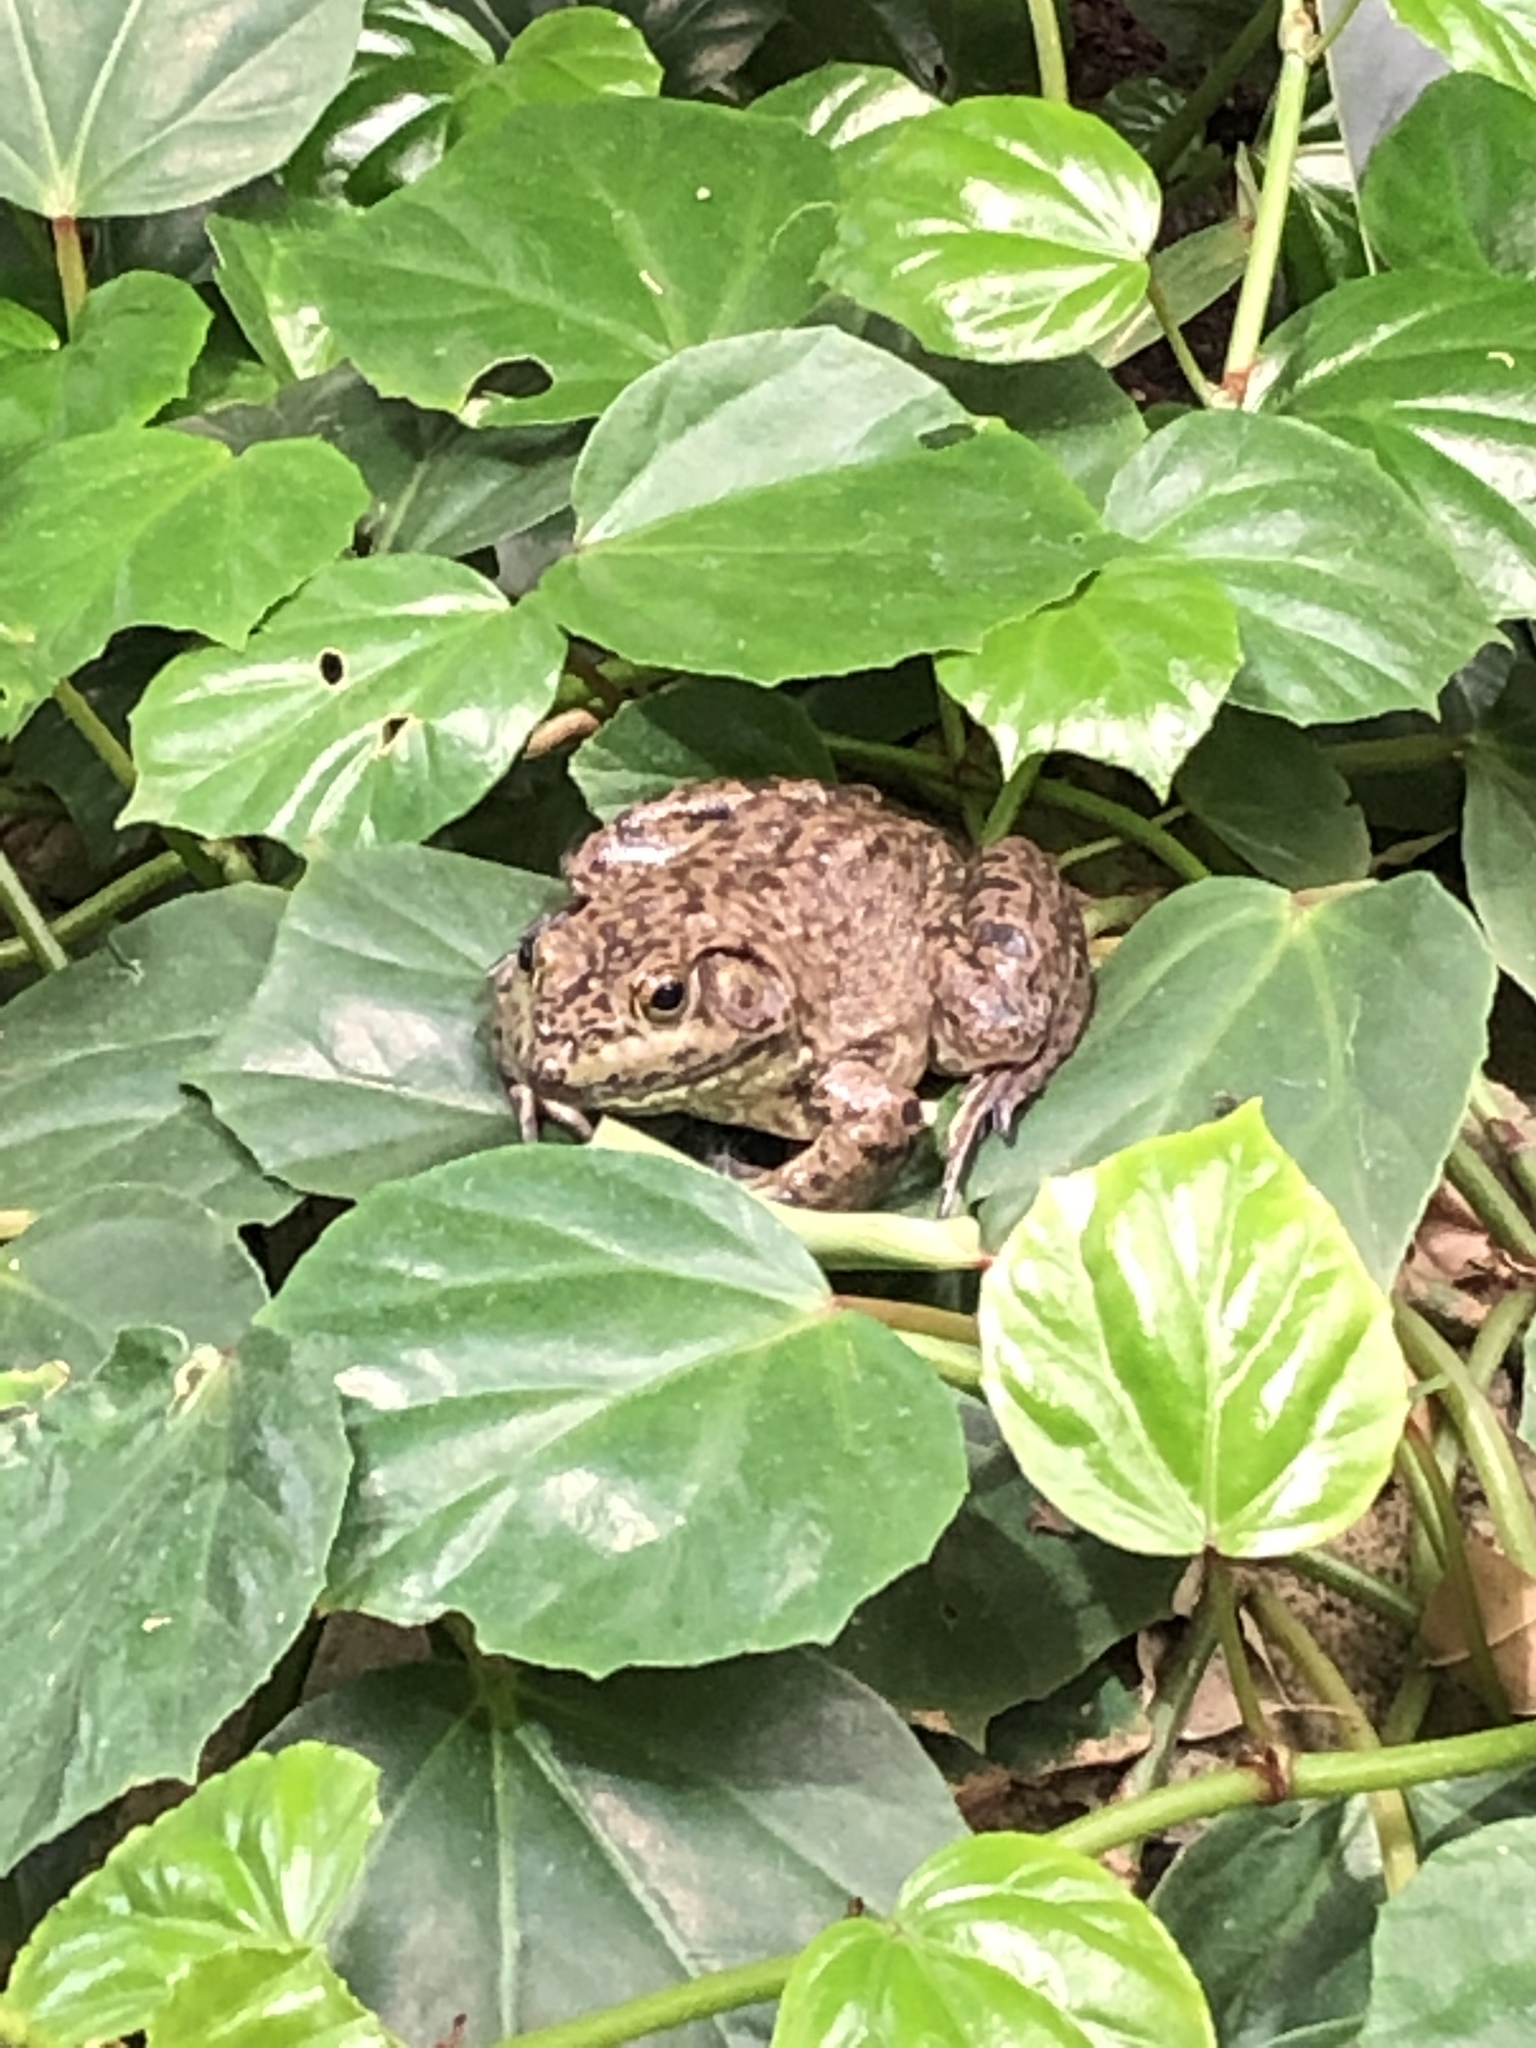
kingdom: Animalia
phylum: Chordata
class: Amphibia
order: Anura
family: Ranidae
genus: Lithobates
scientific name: Lithobates catesbeianus
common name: American bullfrog
